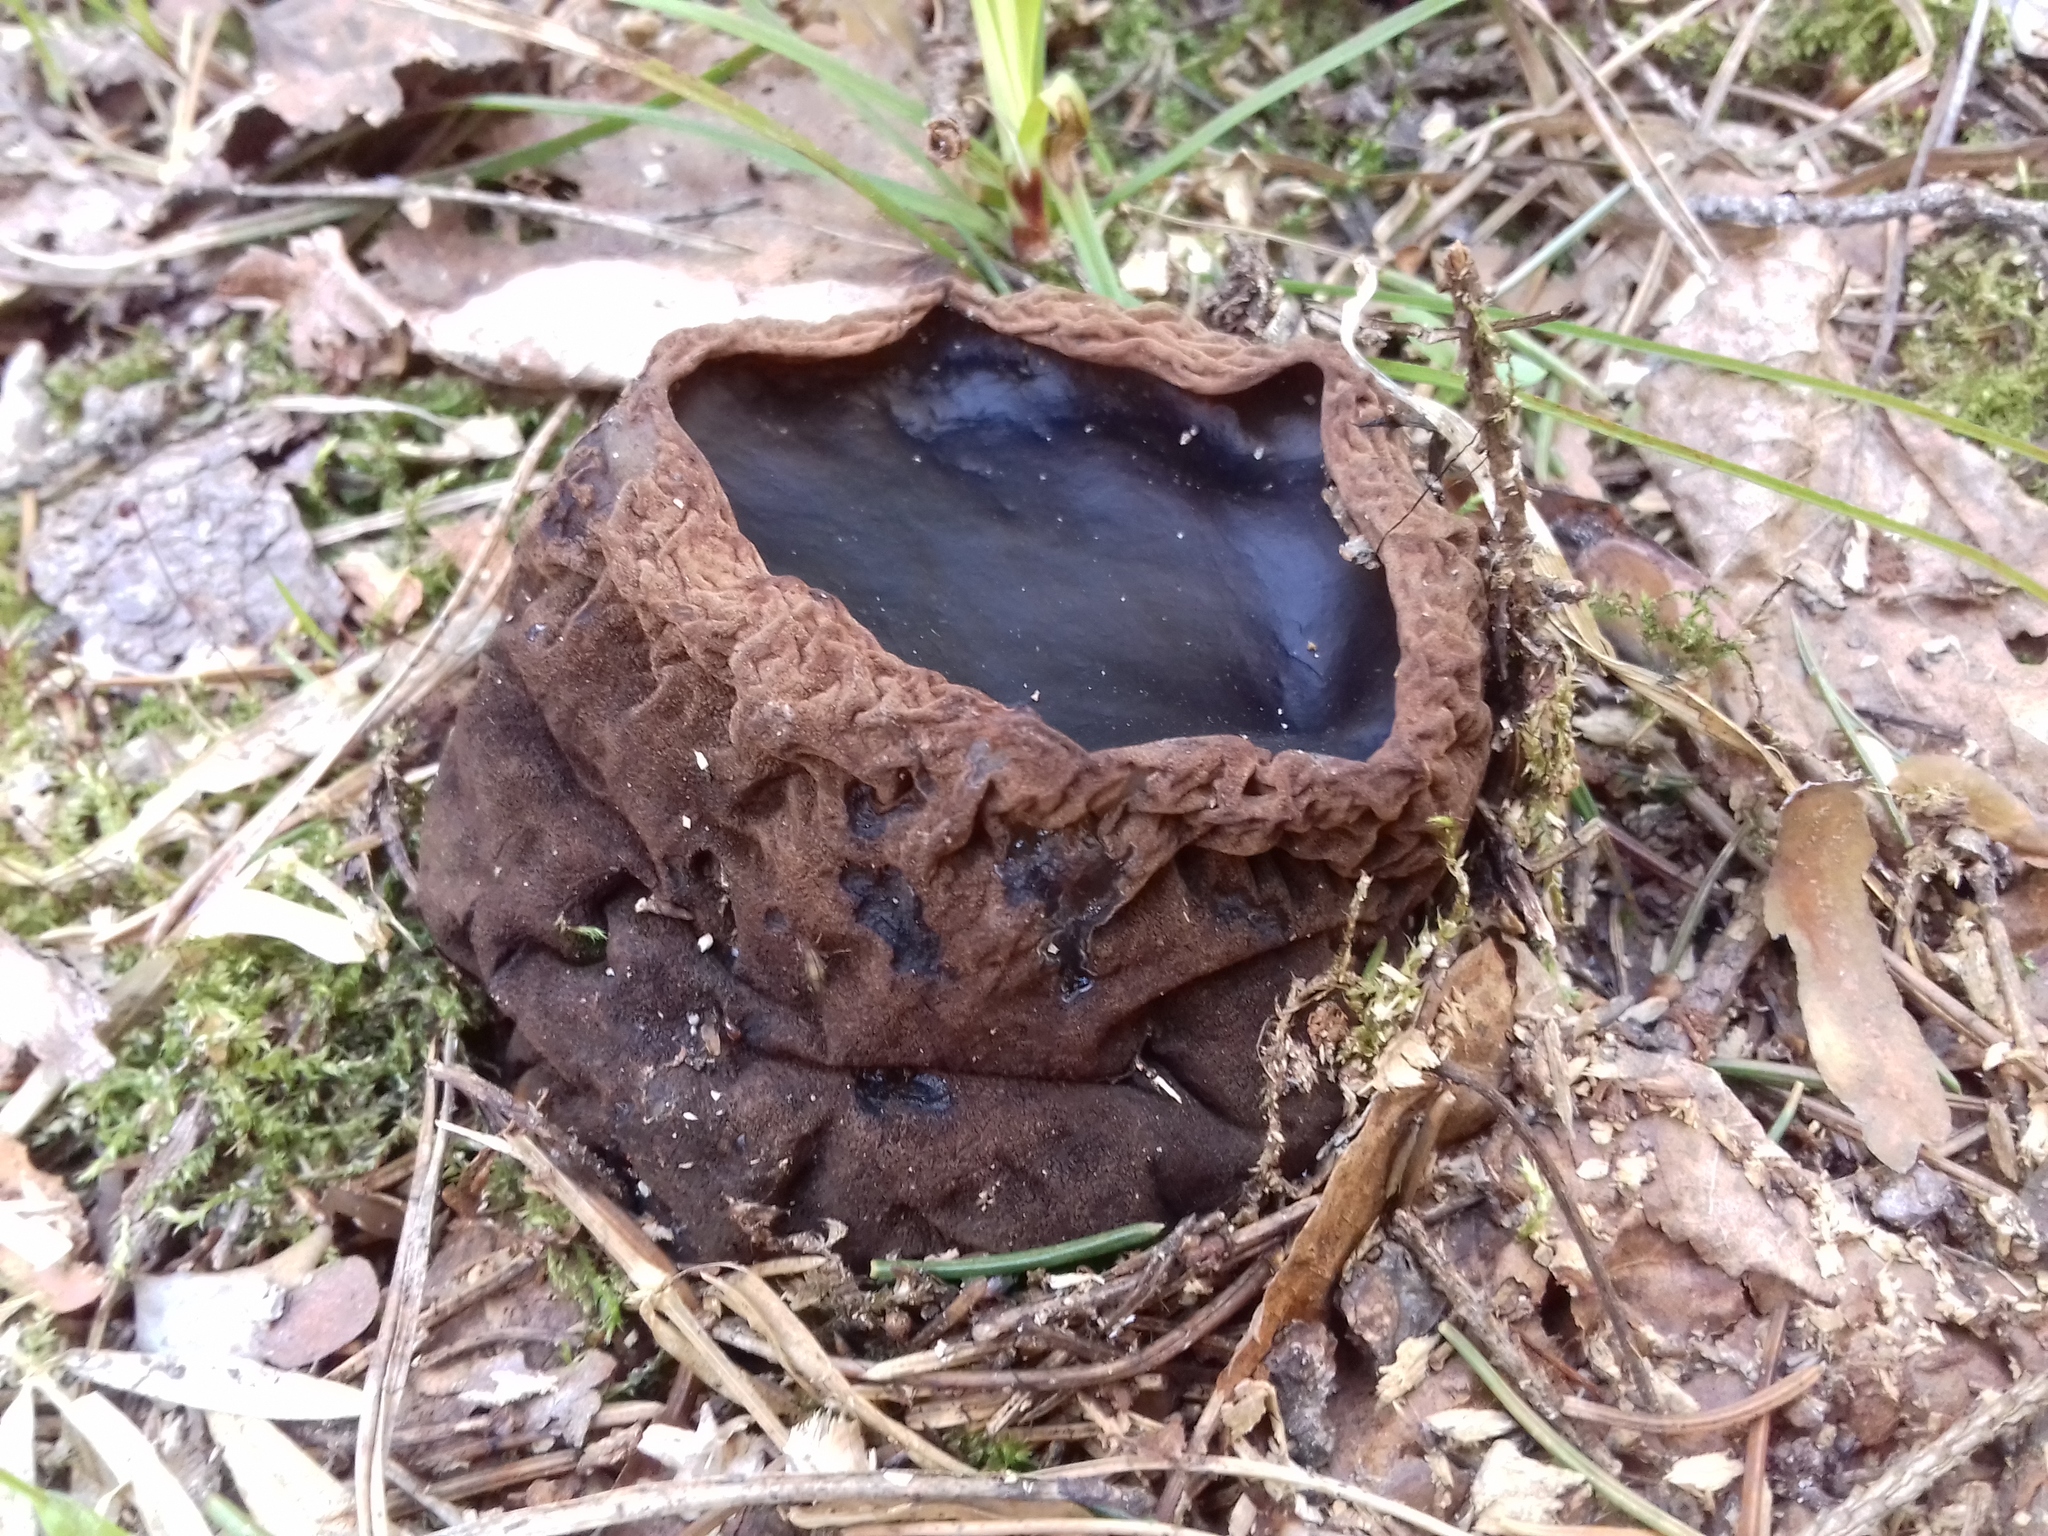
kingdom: Fungi
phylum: Ascomycota
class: Pezizomycetes
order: Pezizales
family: Sarcosomataceae
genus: Sarcosoma
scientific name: Sarcosoma globosum
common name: Charred-pancake cup
